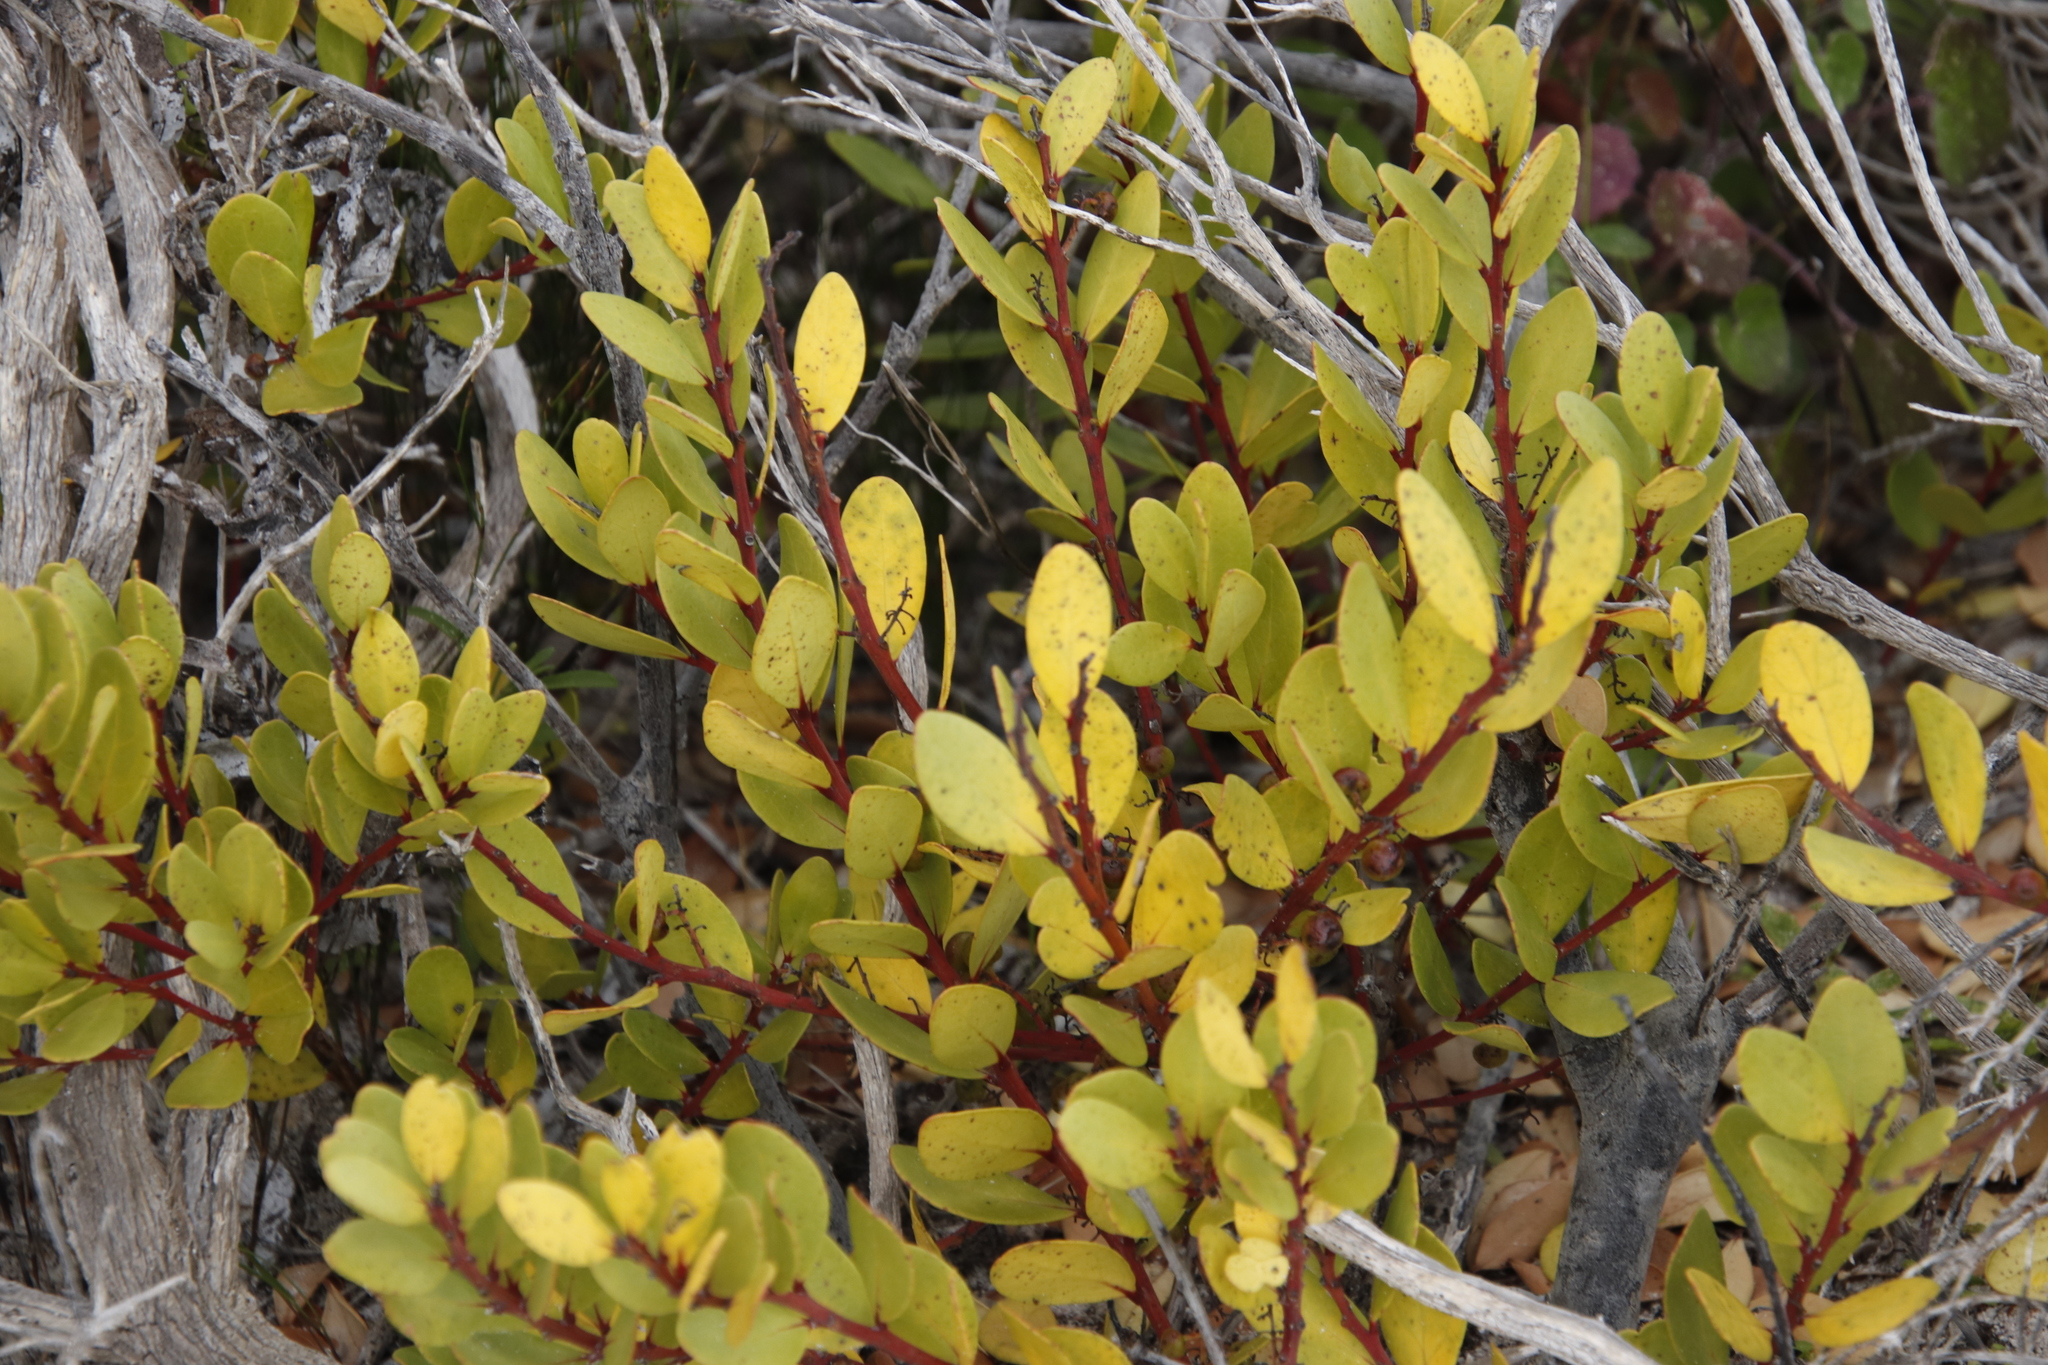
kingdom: Plantae
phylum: Tracheophyta
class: Magnoliopsida
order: Ericales
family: Ebenaceae
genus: Euclea
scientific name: Euclea racemosa
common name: Dune guarri
